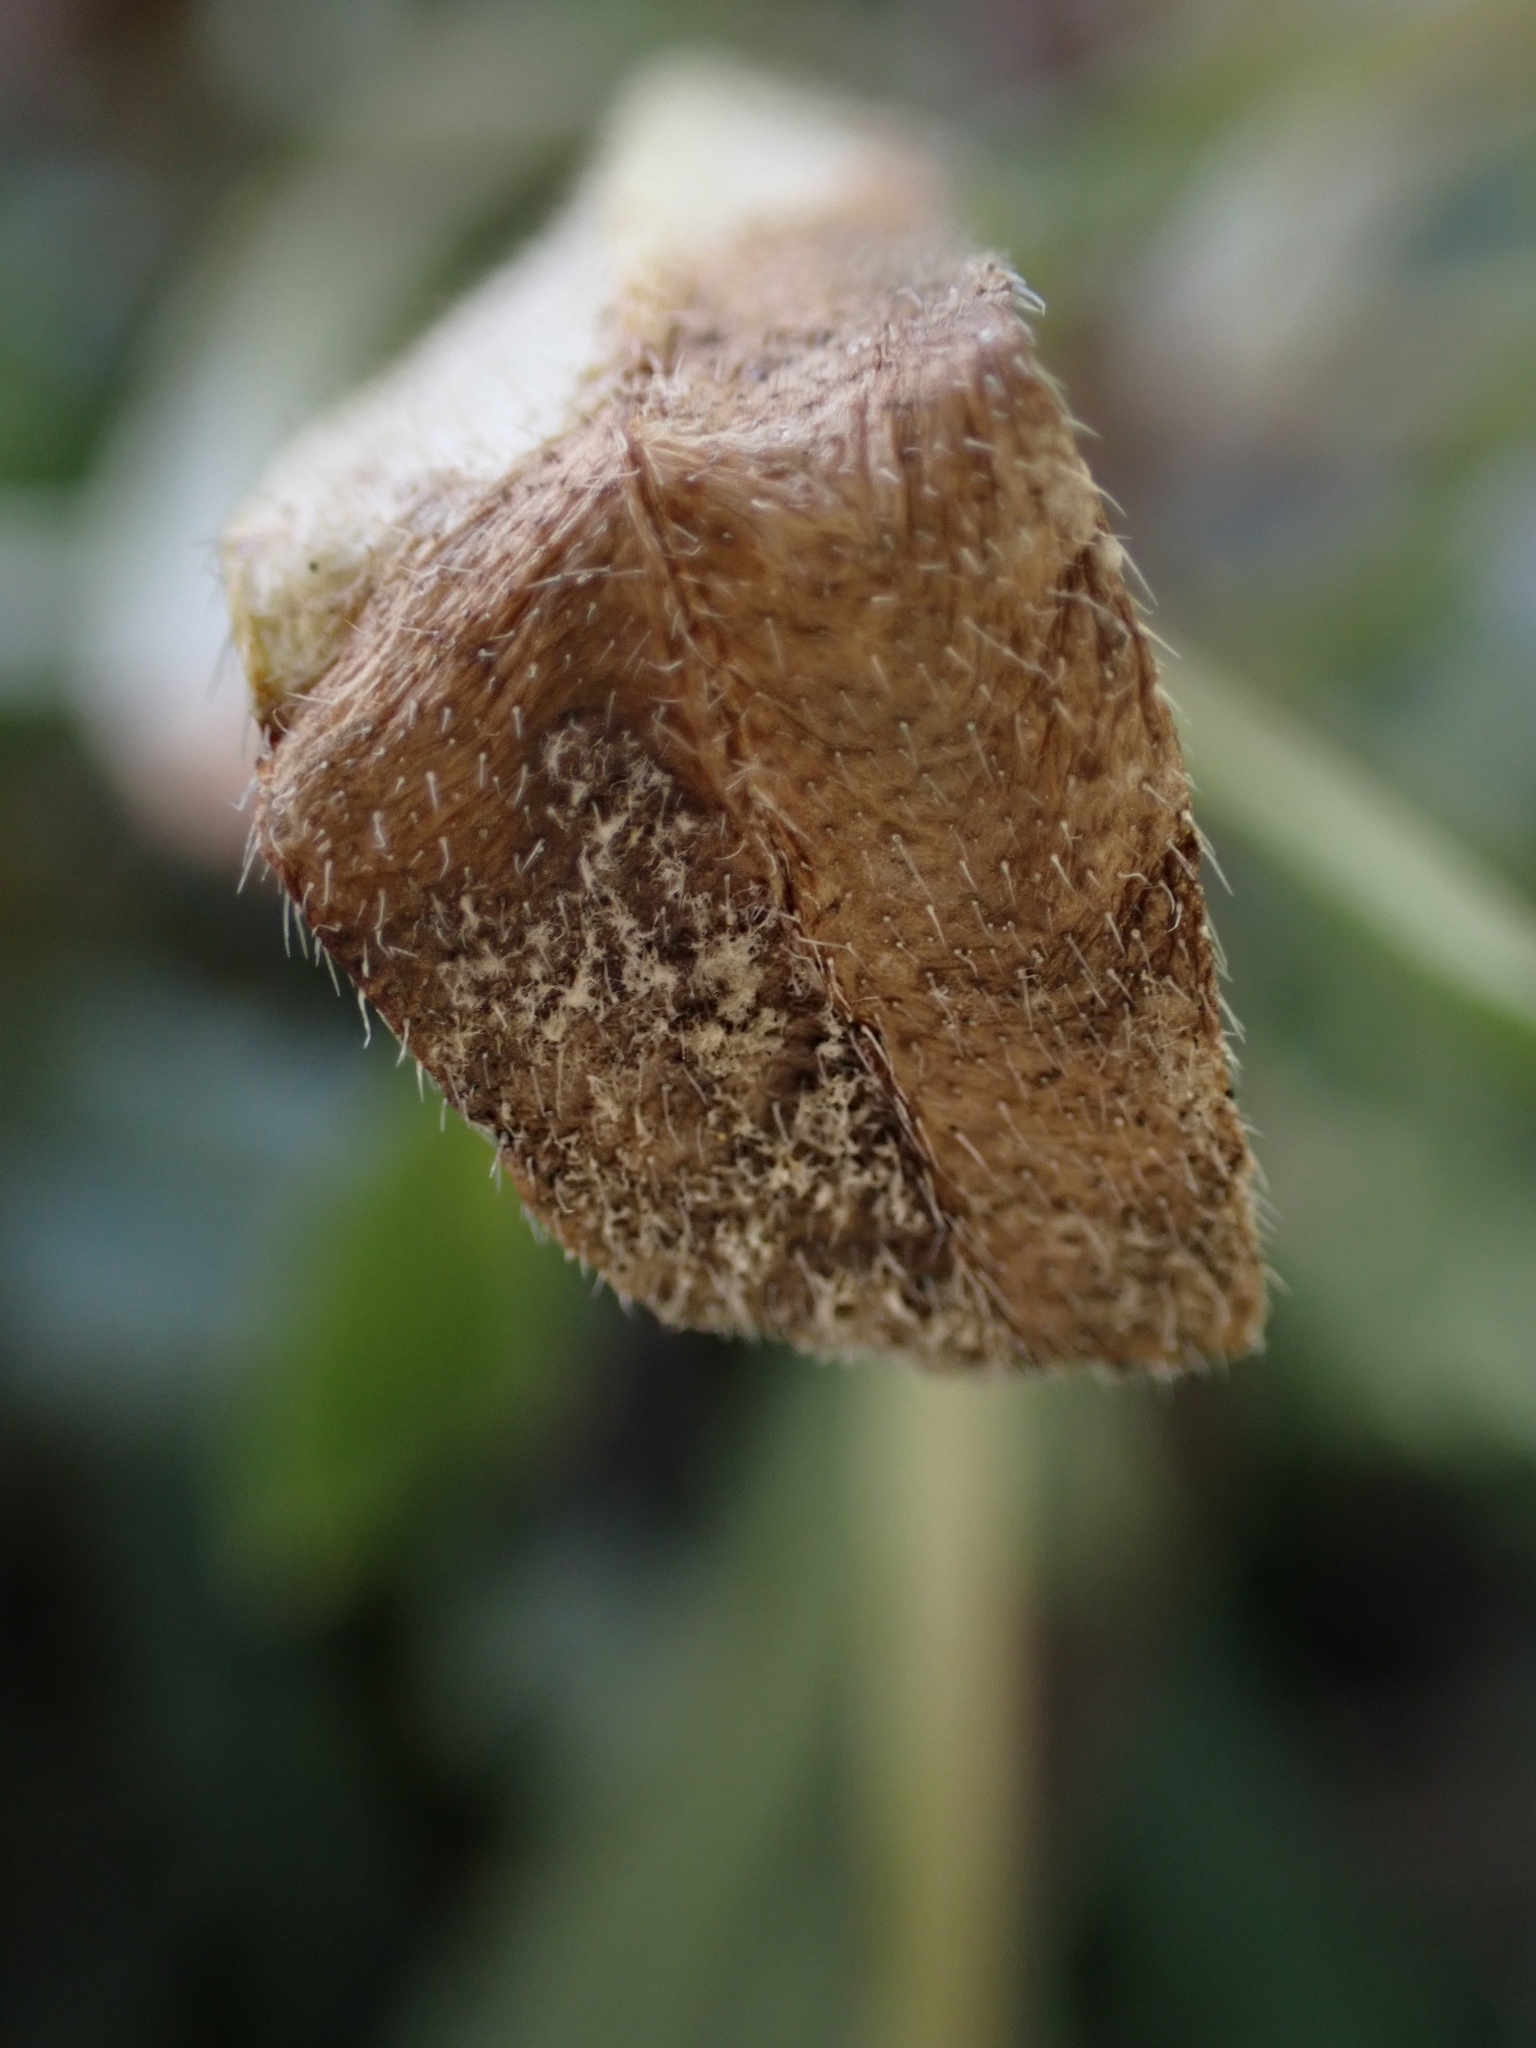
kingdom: Chromista
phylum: Oomycota
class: Peronosporea
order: Peronosporales
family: Peronosporaceae
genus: Peronospora
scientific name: Peronospora lithospermi
